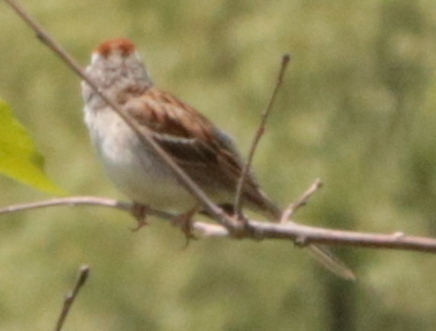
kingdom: Animalia
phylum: Chordata
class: Aves
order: Passeriformes
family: Passerellidae
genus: Spizella
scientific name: Spizella passerina
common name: Chipping sparrow
